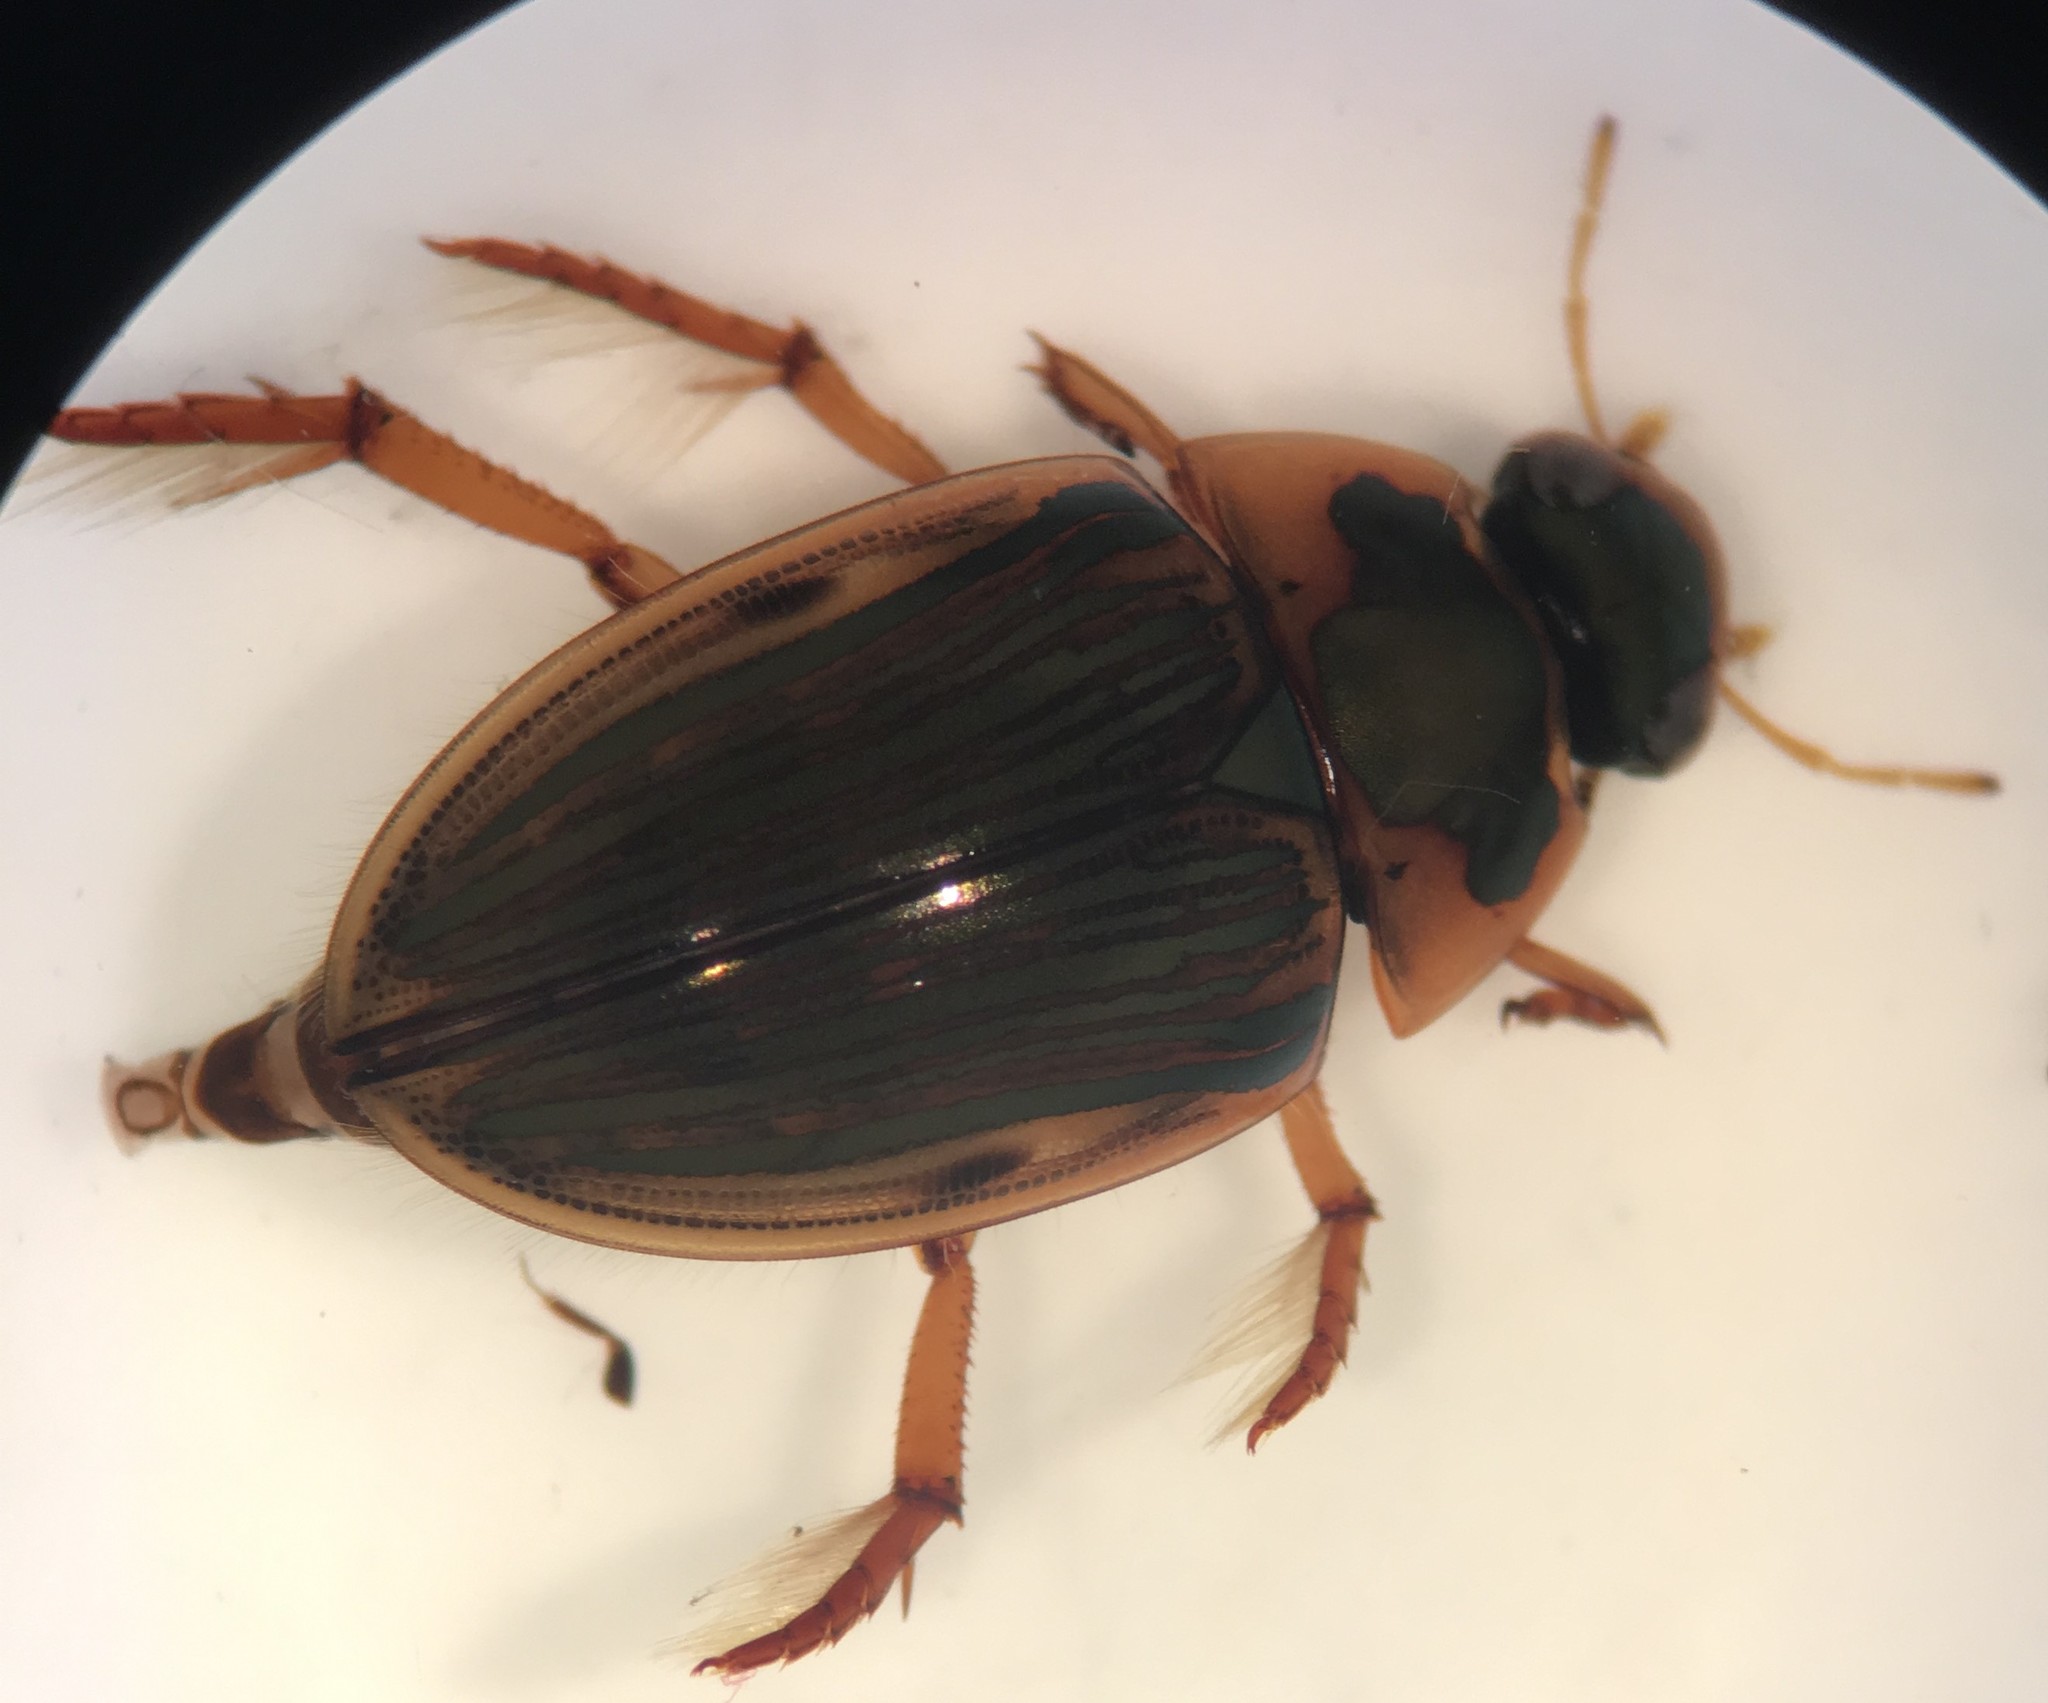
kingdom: Animalia
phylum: Arthropoda
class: Insecta
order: Coleoptera
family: Hydrophilidae
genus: Tropisternus
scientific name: Tropisternus collaris
